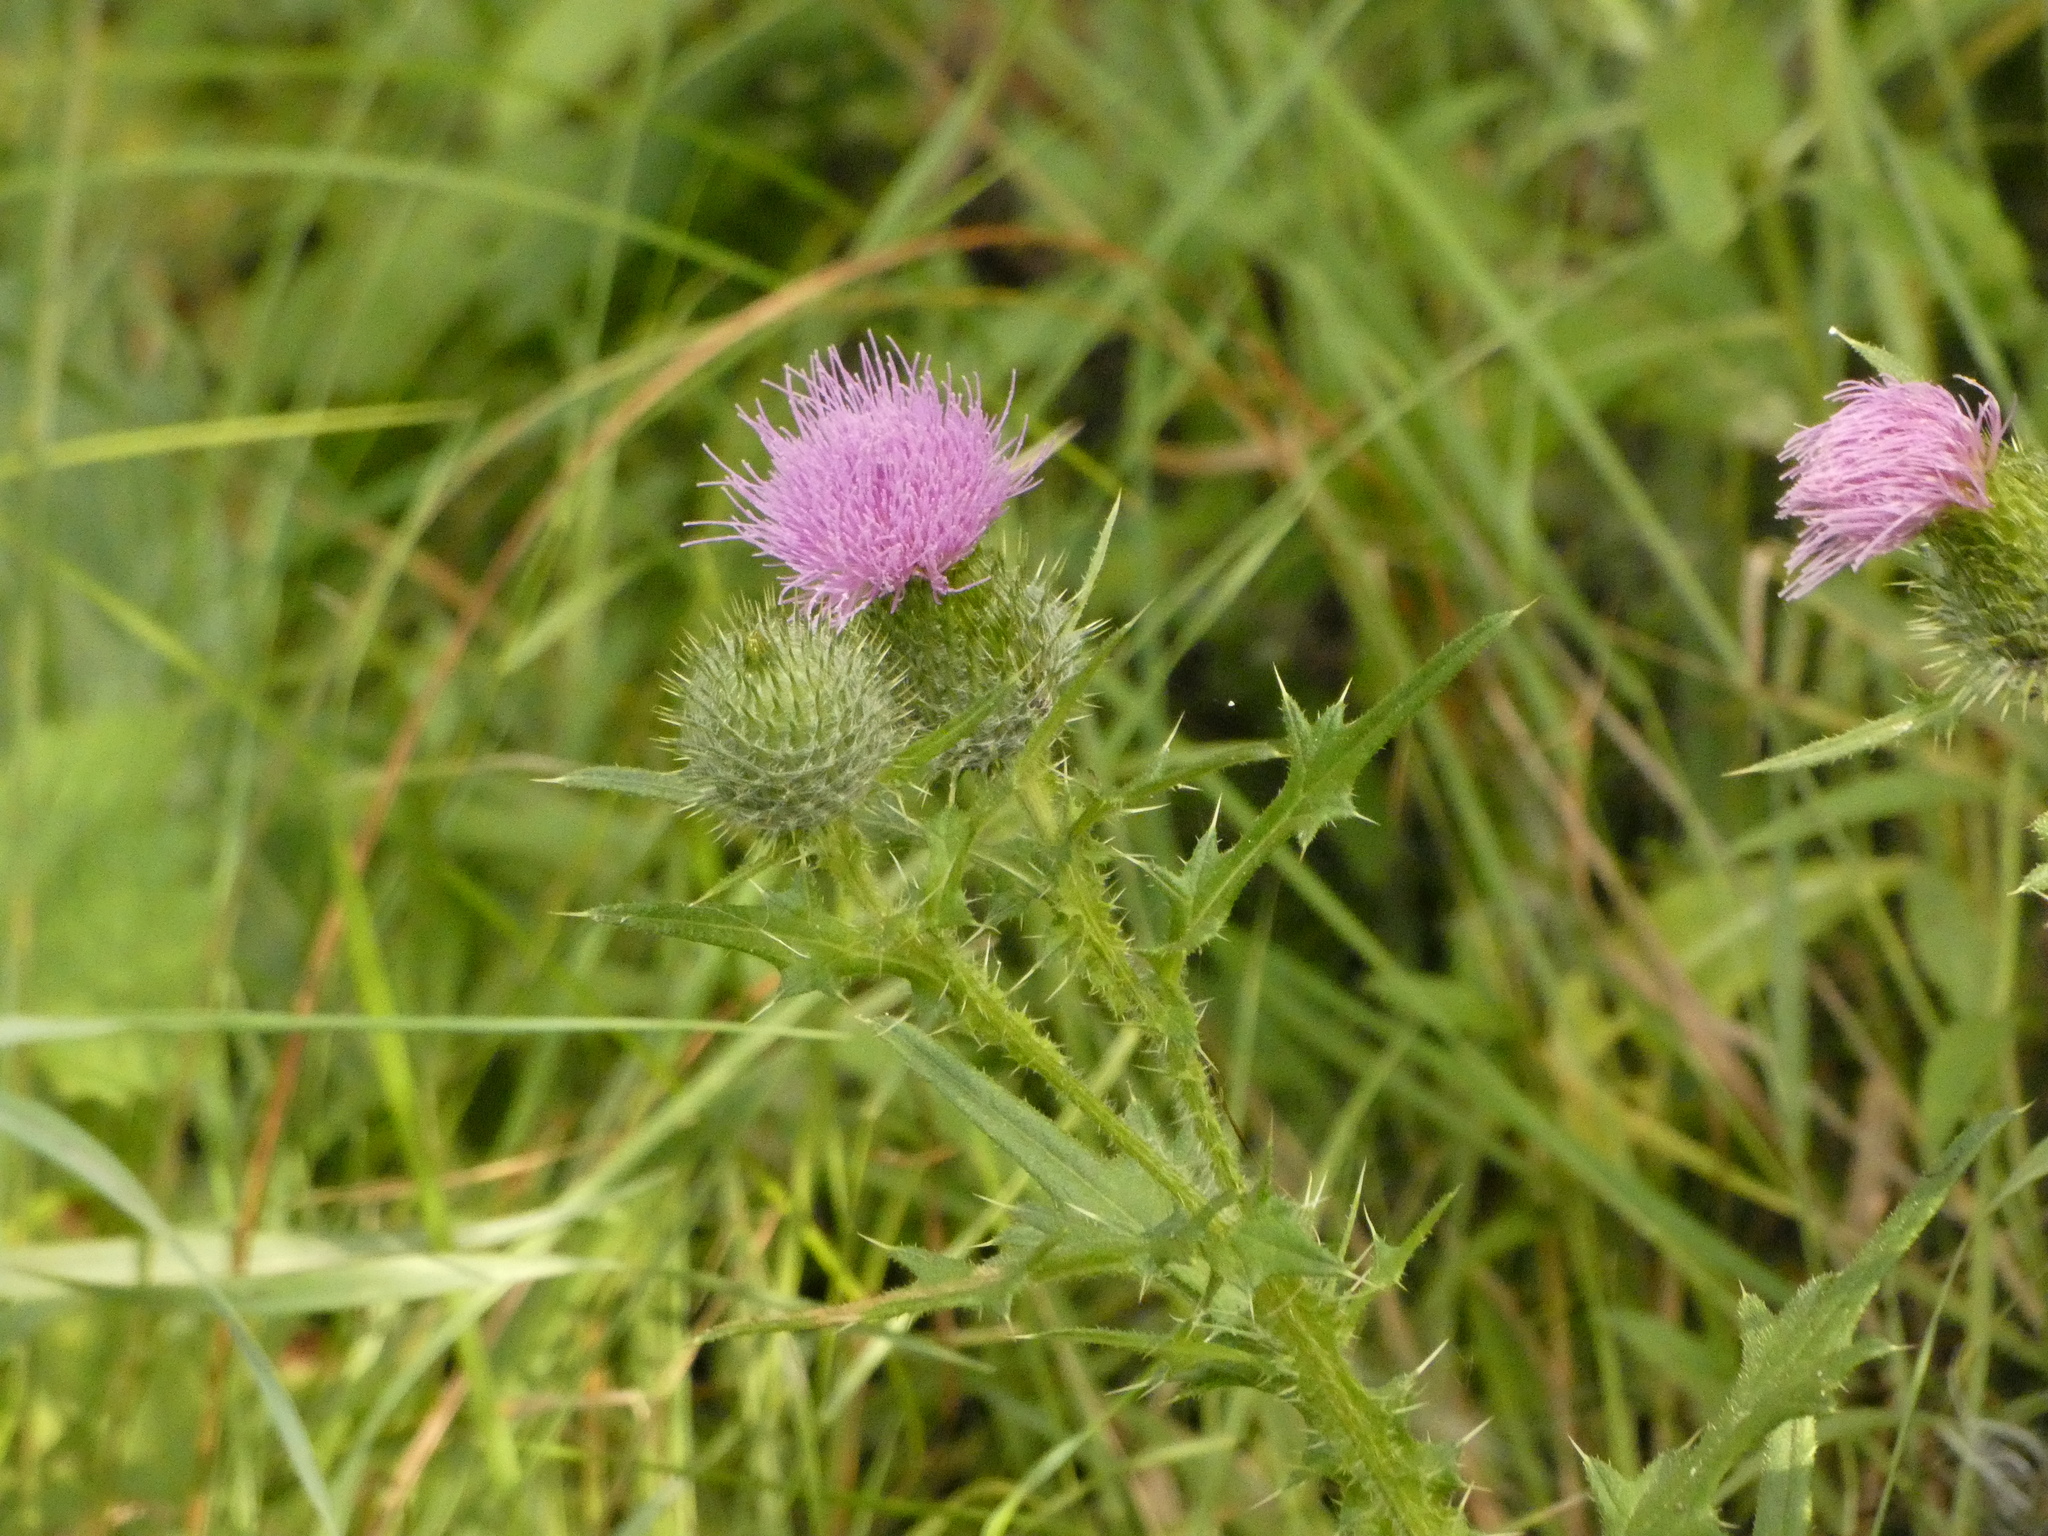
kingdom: Plantae
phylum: Tracheophyta
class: Magnoliopsida
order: Asterales
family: Asteraceae
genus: Cirsium
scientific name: Cirsium vulgare
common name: Bull thistle
